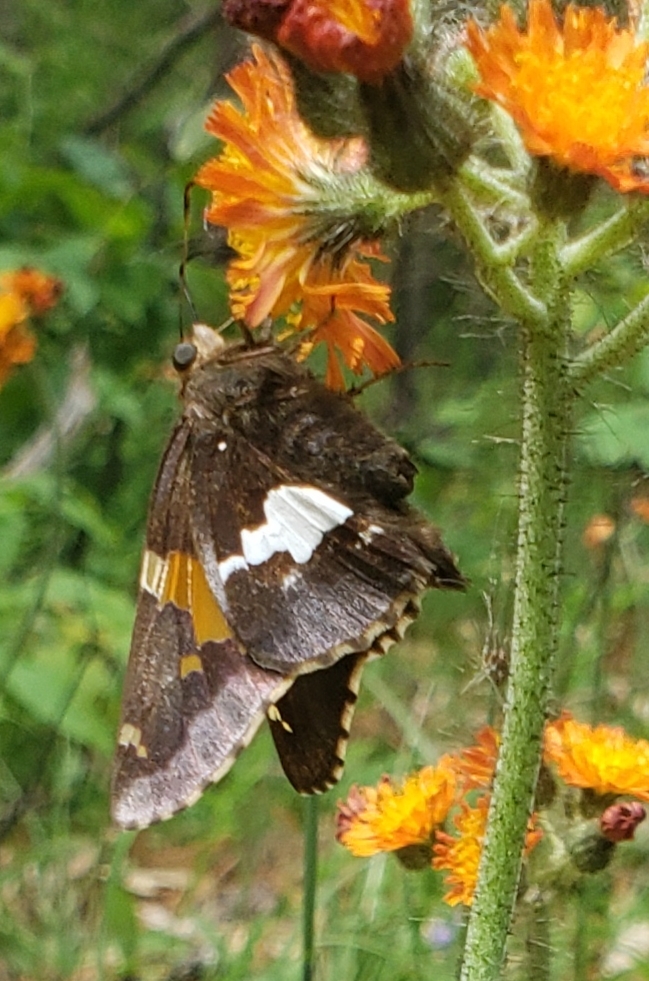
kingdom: Animalia
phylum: Arthropoda
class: Insecta
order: Lepidoptera
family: Hesperiidae
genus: Epargyreus
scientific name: Epargyreus clarus
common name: Silver-spotted skipper
